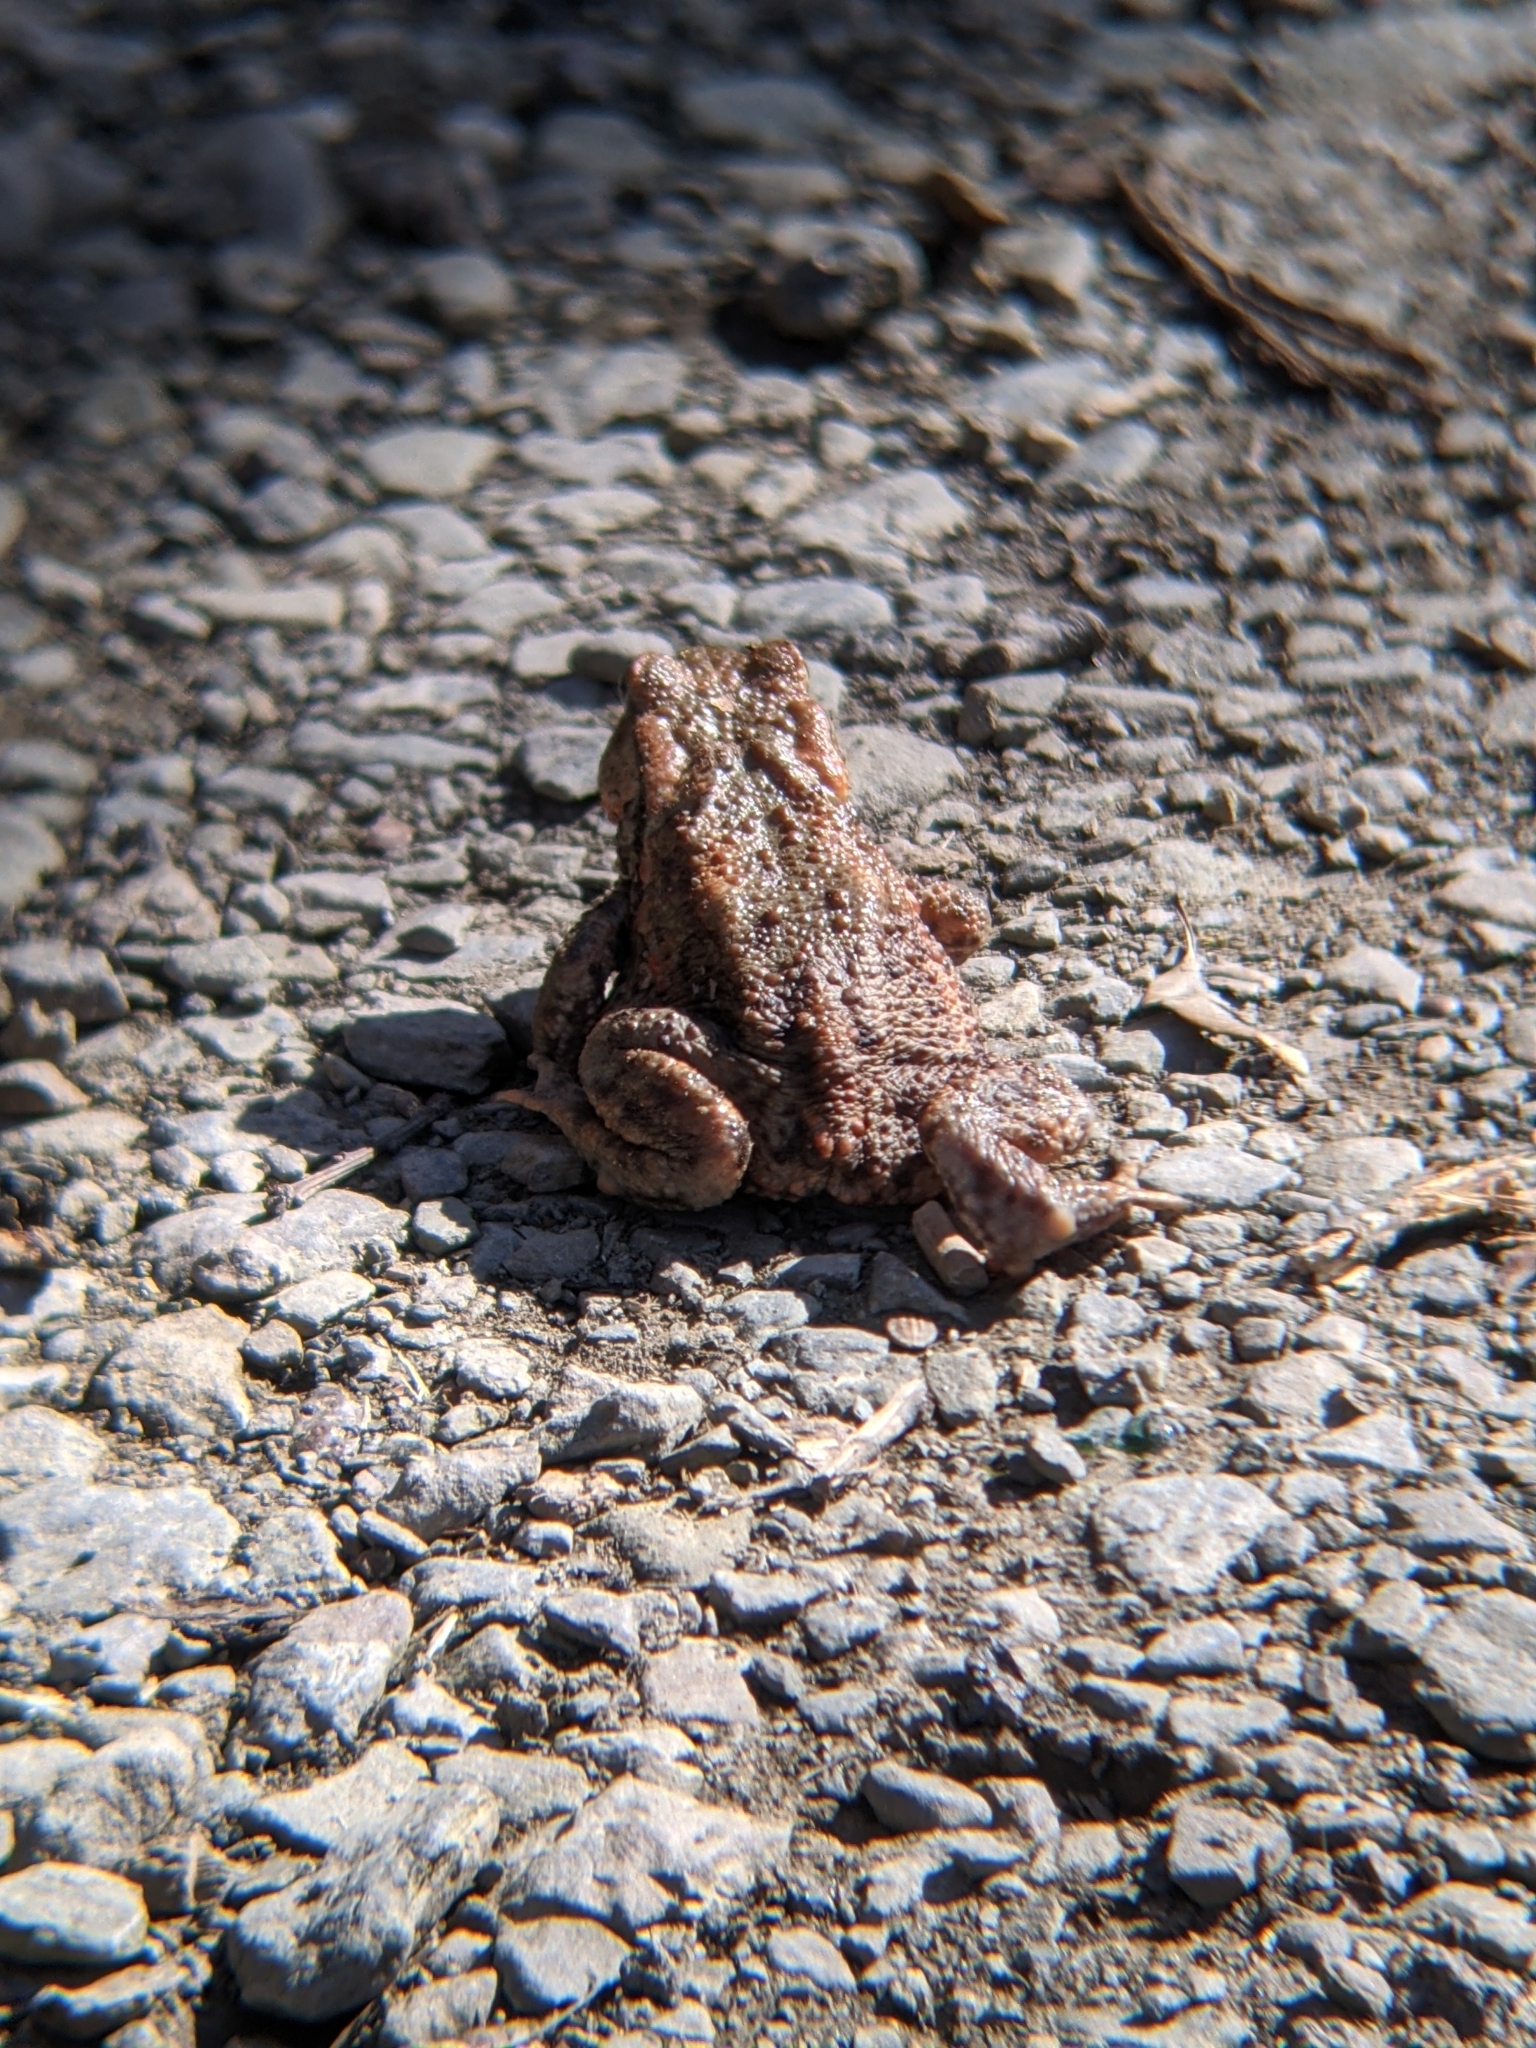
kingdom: Animalia
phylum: Chordata
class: Amphibia
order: Anura
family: Bufonidae
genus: Bufo
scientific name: Bufo bufo
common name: Common toad
